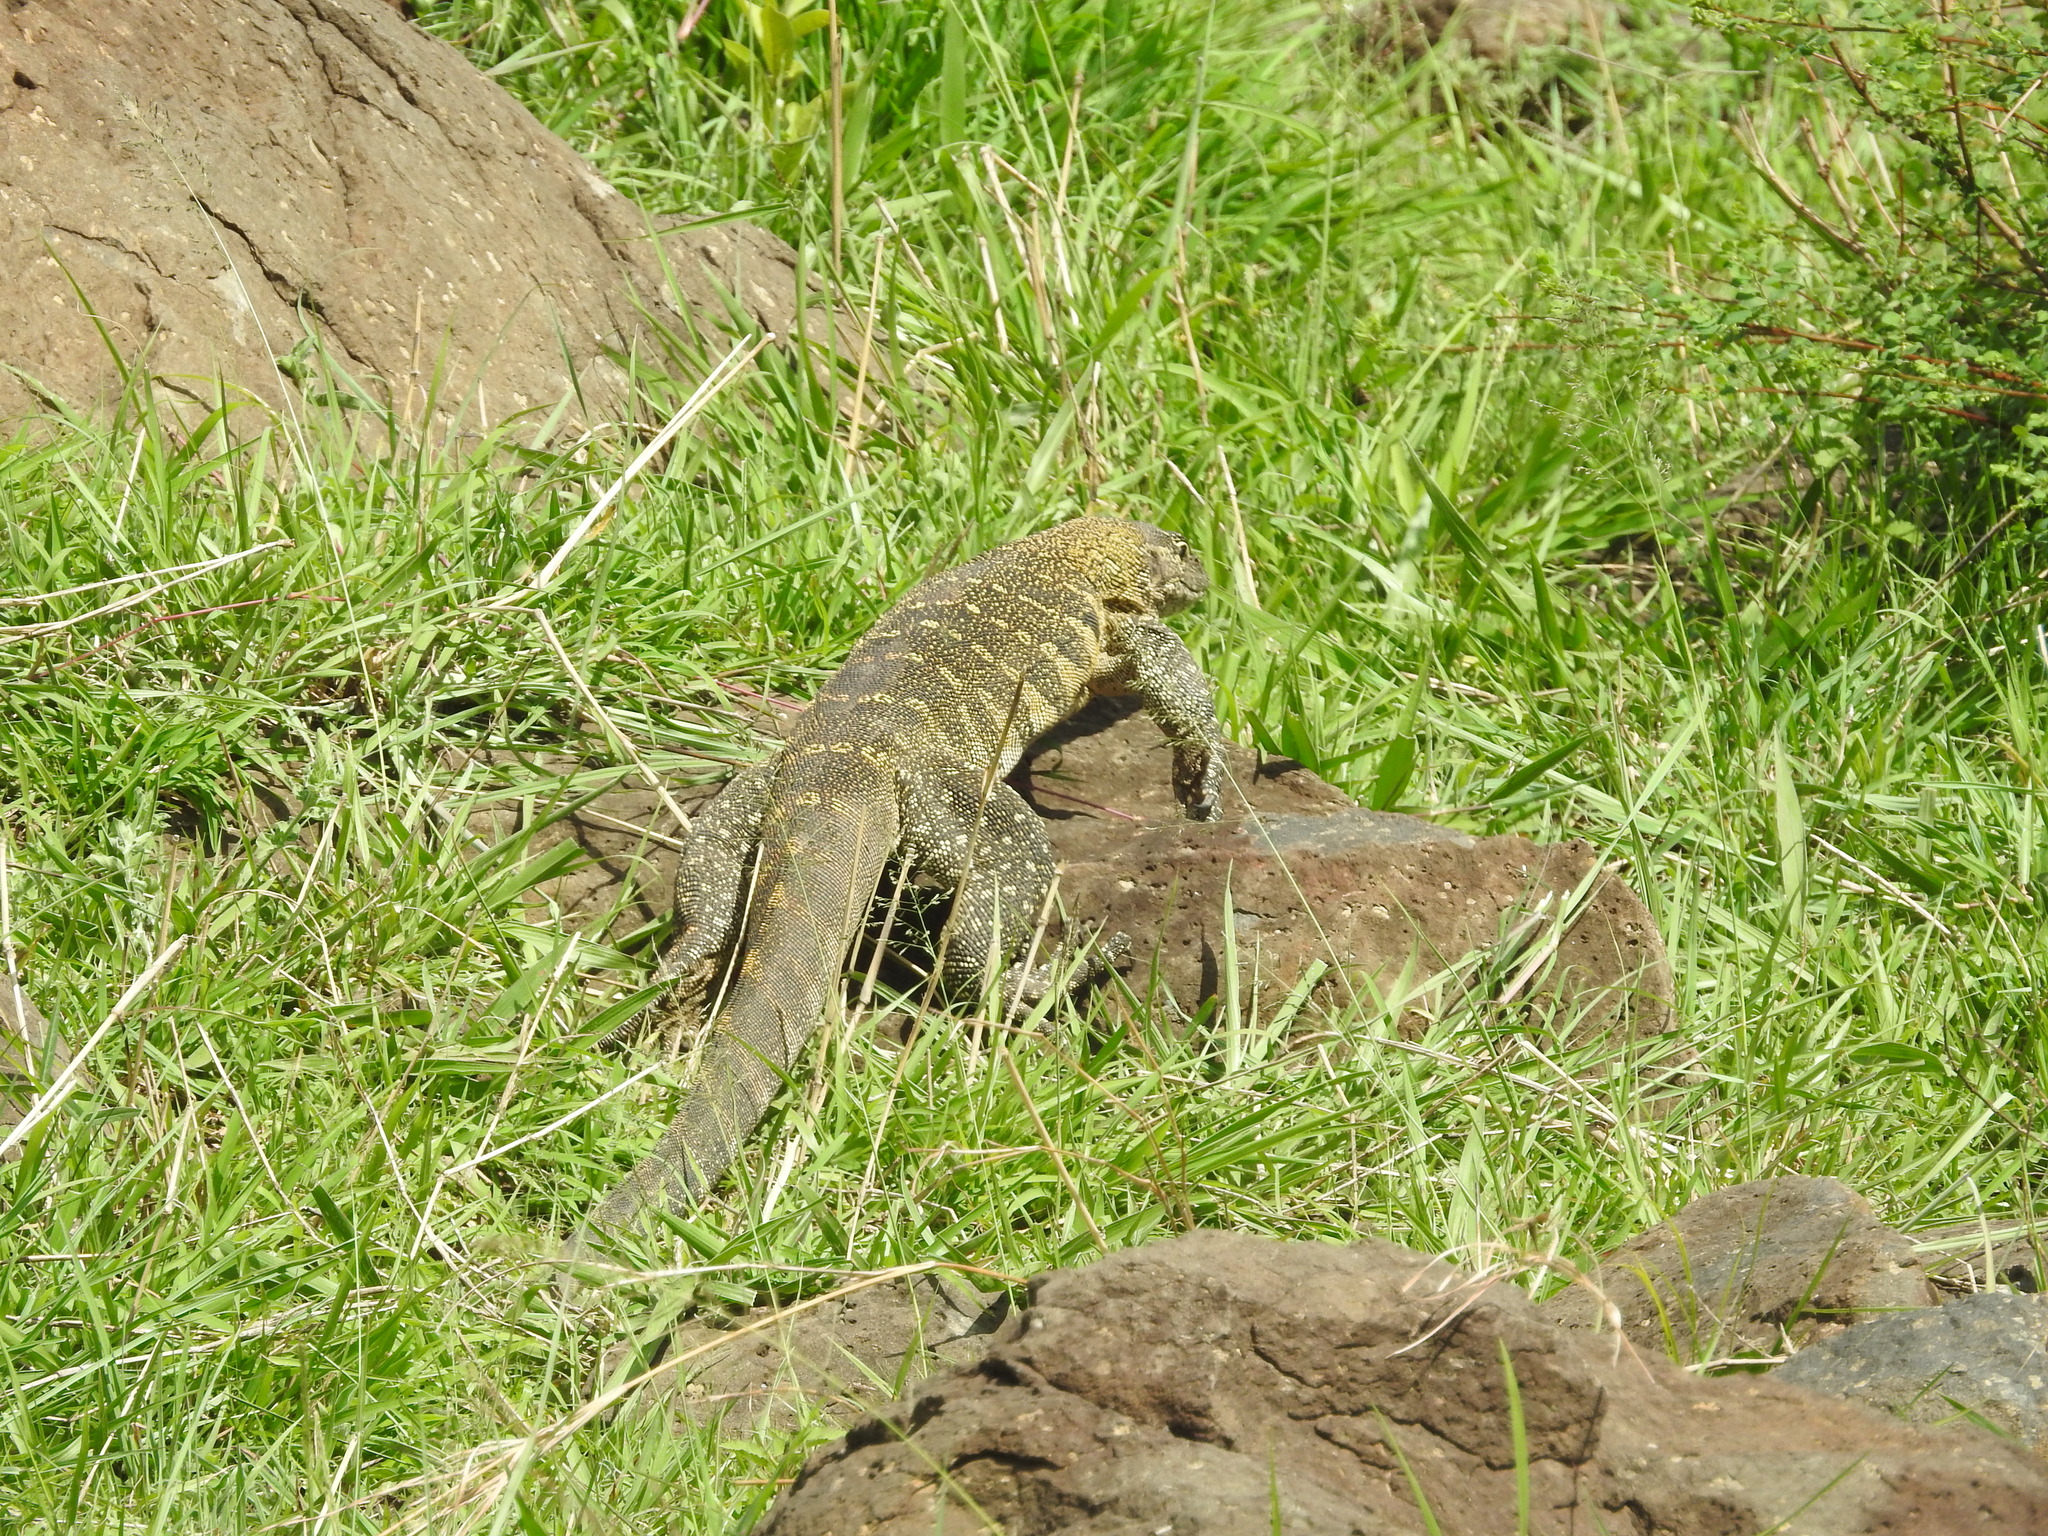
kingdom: Animalia
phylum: Chordata
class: Squamata
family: Varanidae
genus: Varanus
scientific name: Varanus niloticus
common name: Nile monitor
